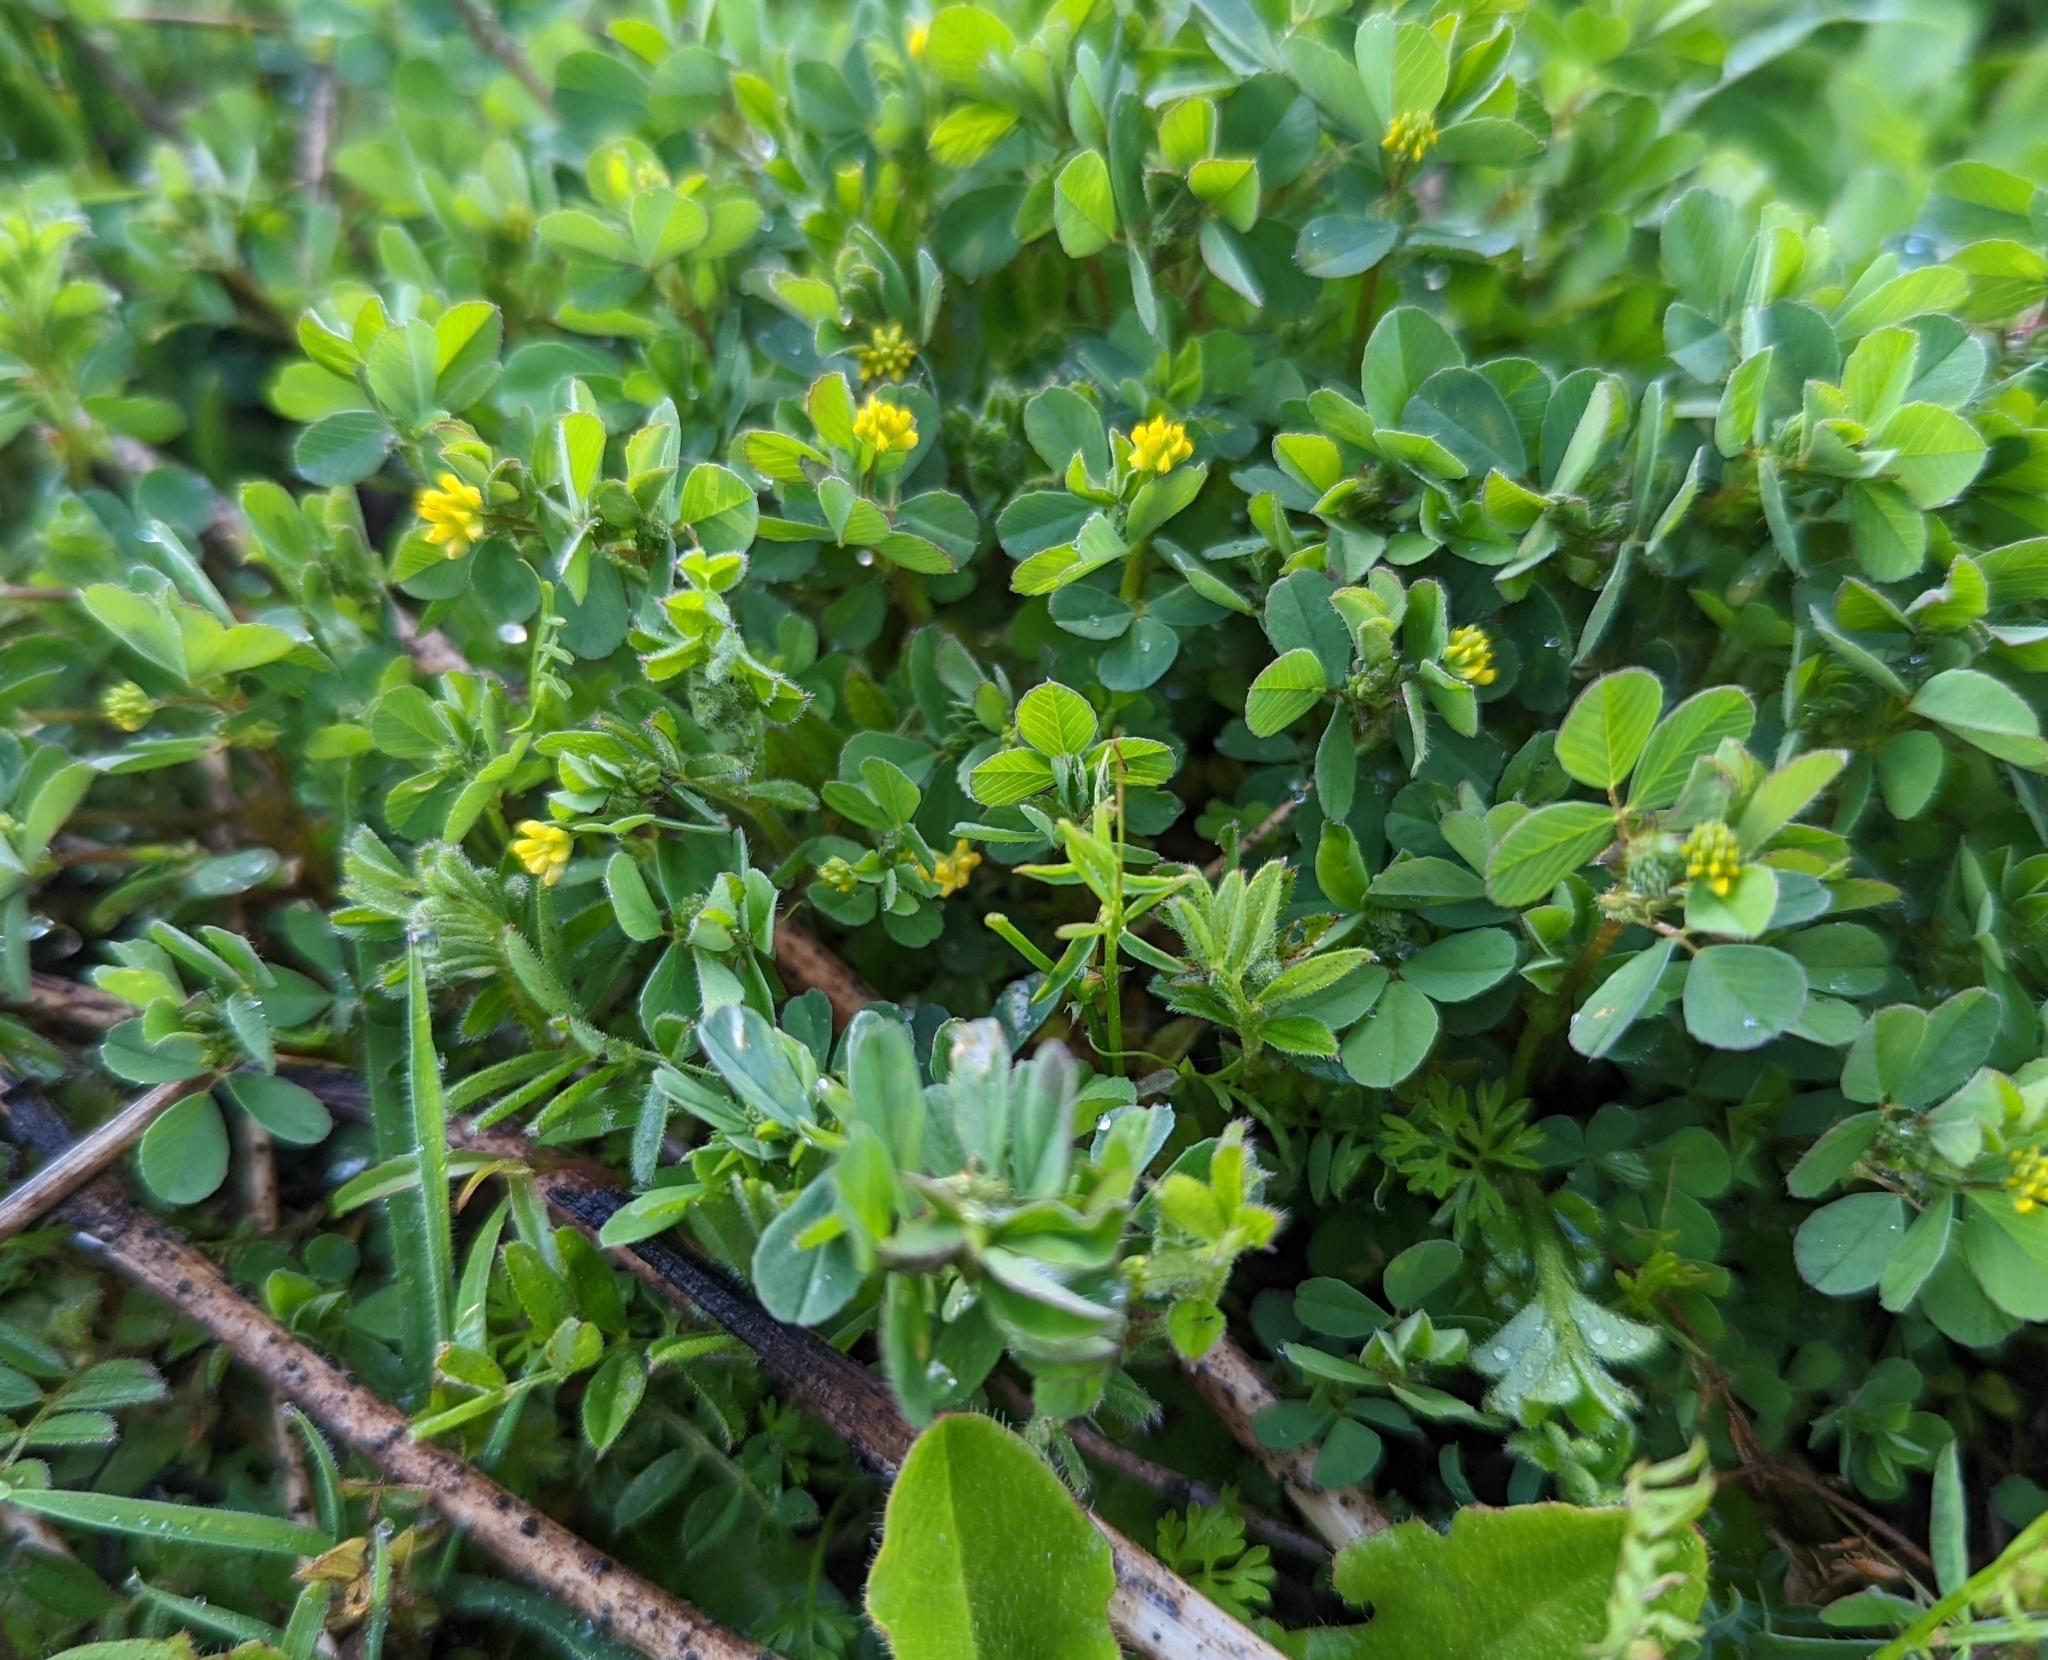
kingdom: Plantae
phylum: Tracheophyta
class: Magnoliopsida
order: Fabales
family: Fabaceae
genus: Trifolium
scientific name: Trifolium dubium
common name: Suckling clover
